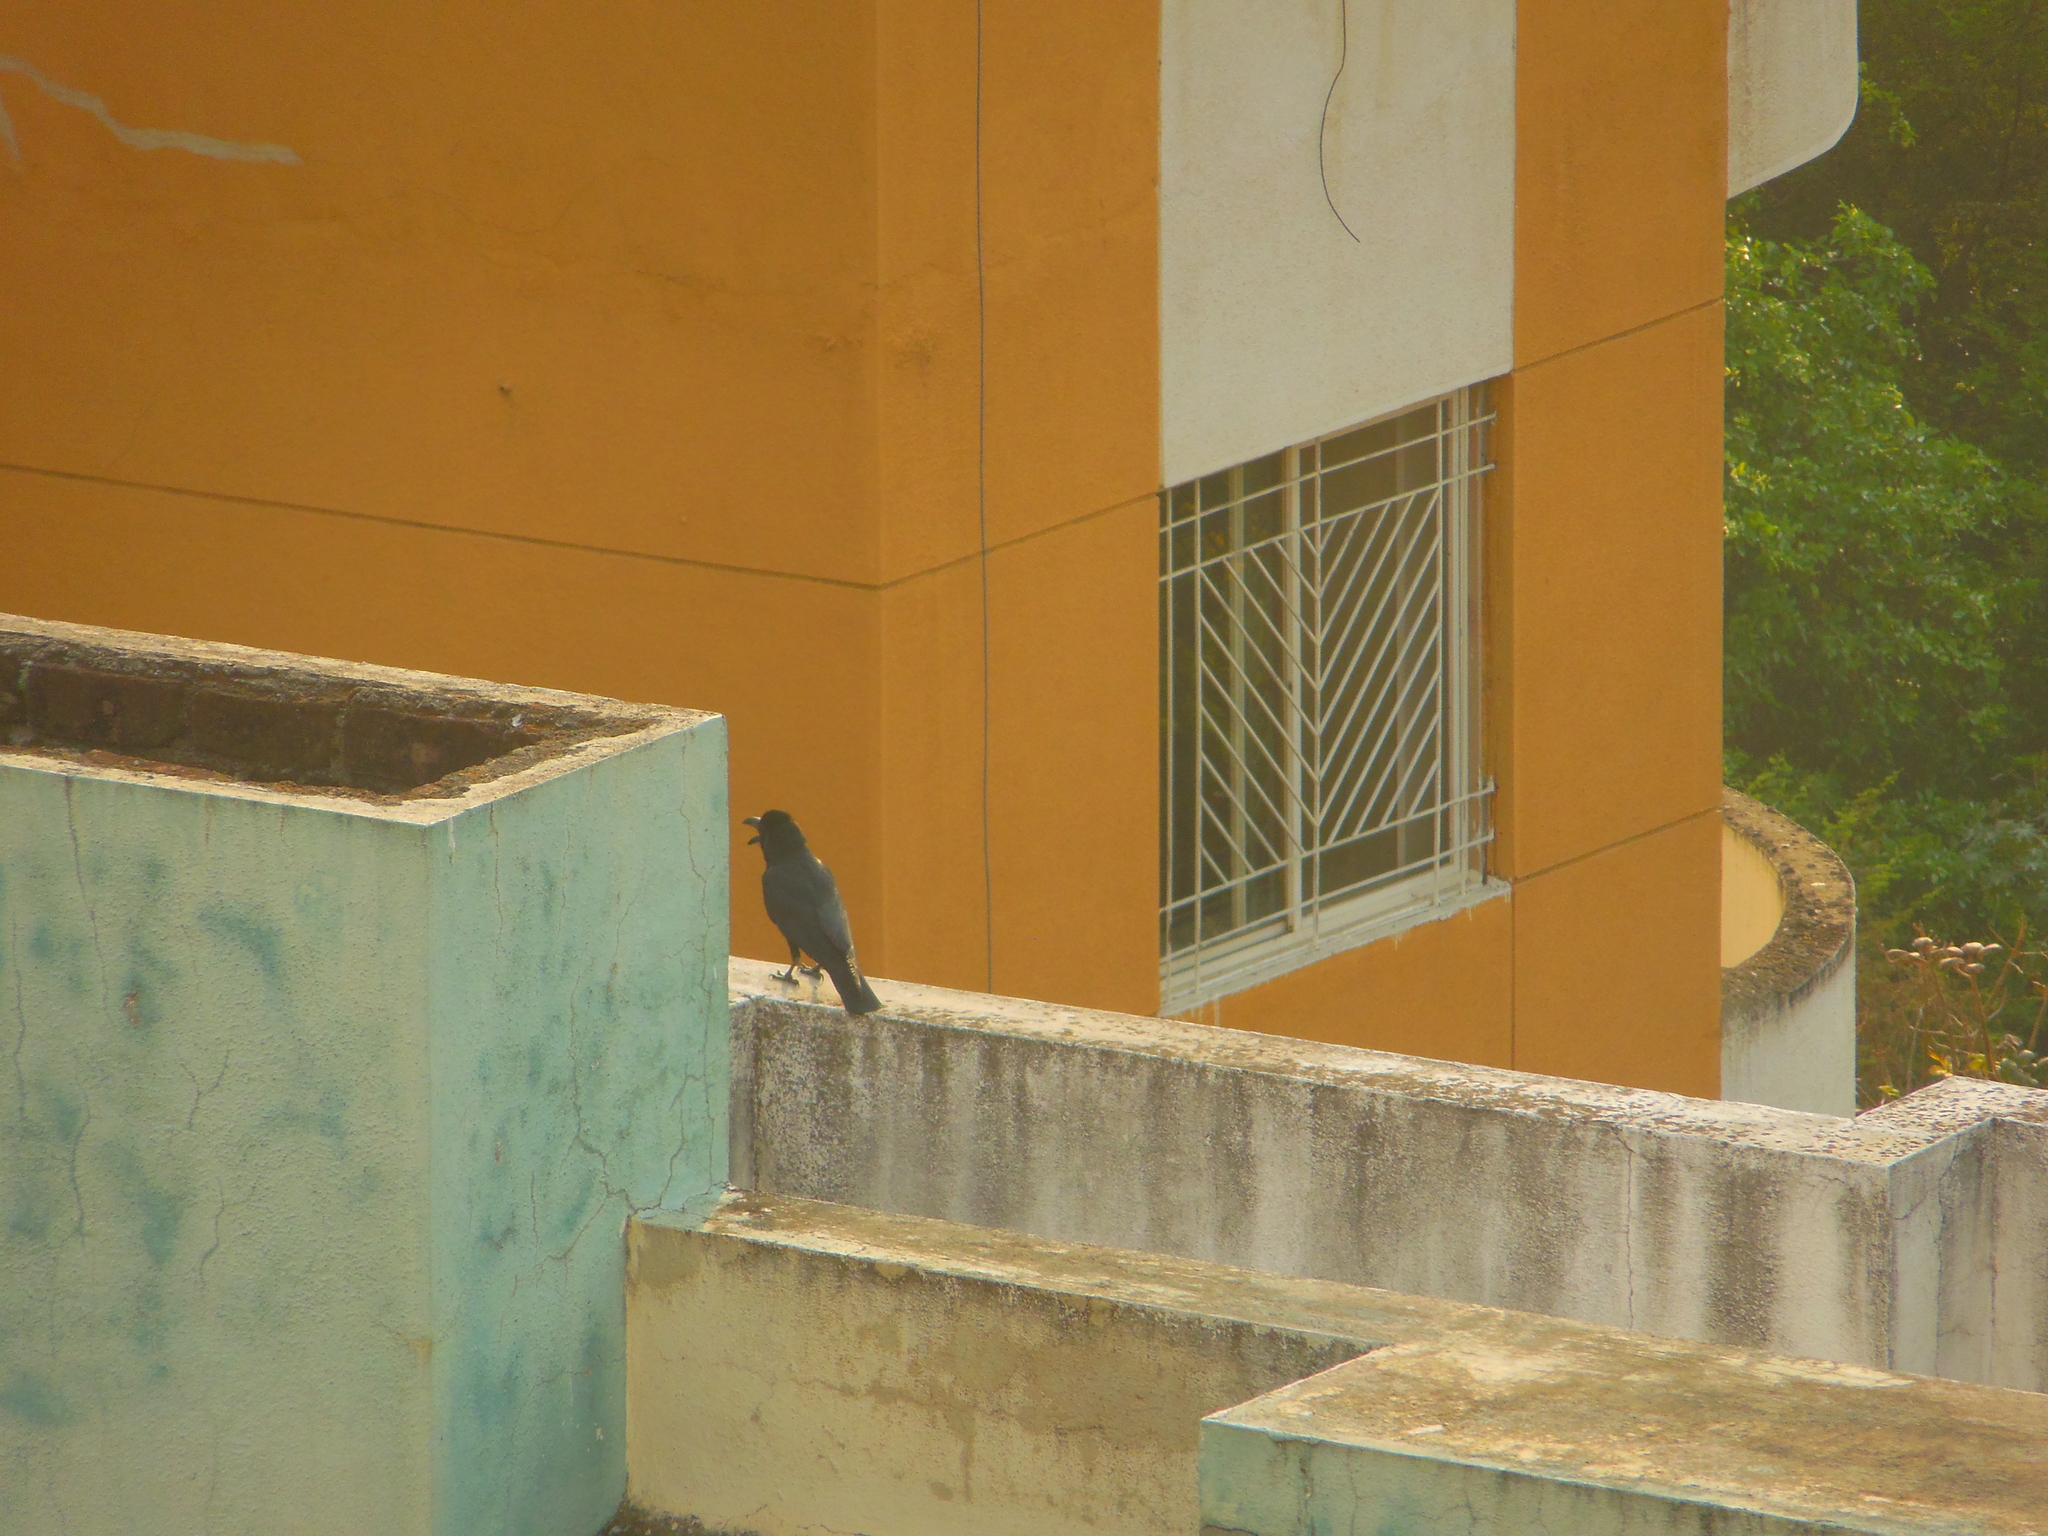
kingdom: Animalia
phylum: Chordata
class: Aves
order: Passeriformes
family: Corvidae
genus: Corvus
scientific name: Corvus macrorhynchos
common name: Large-billed crow
